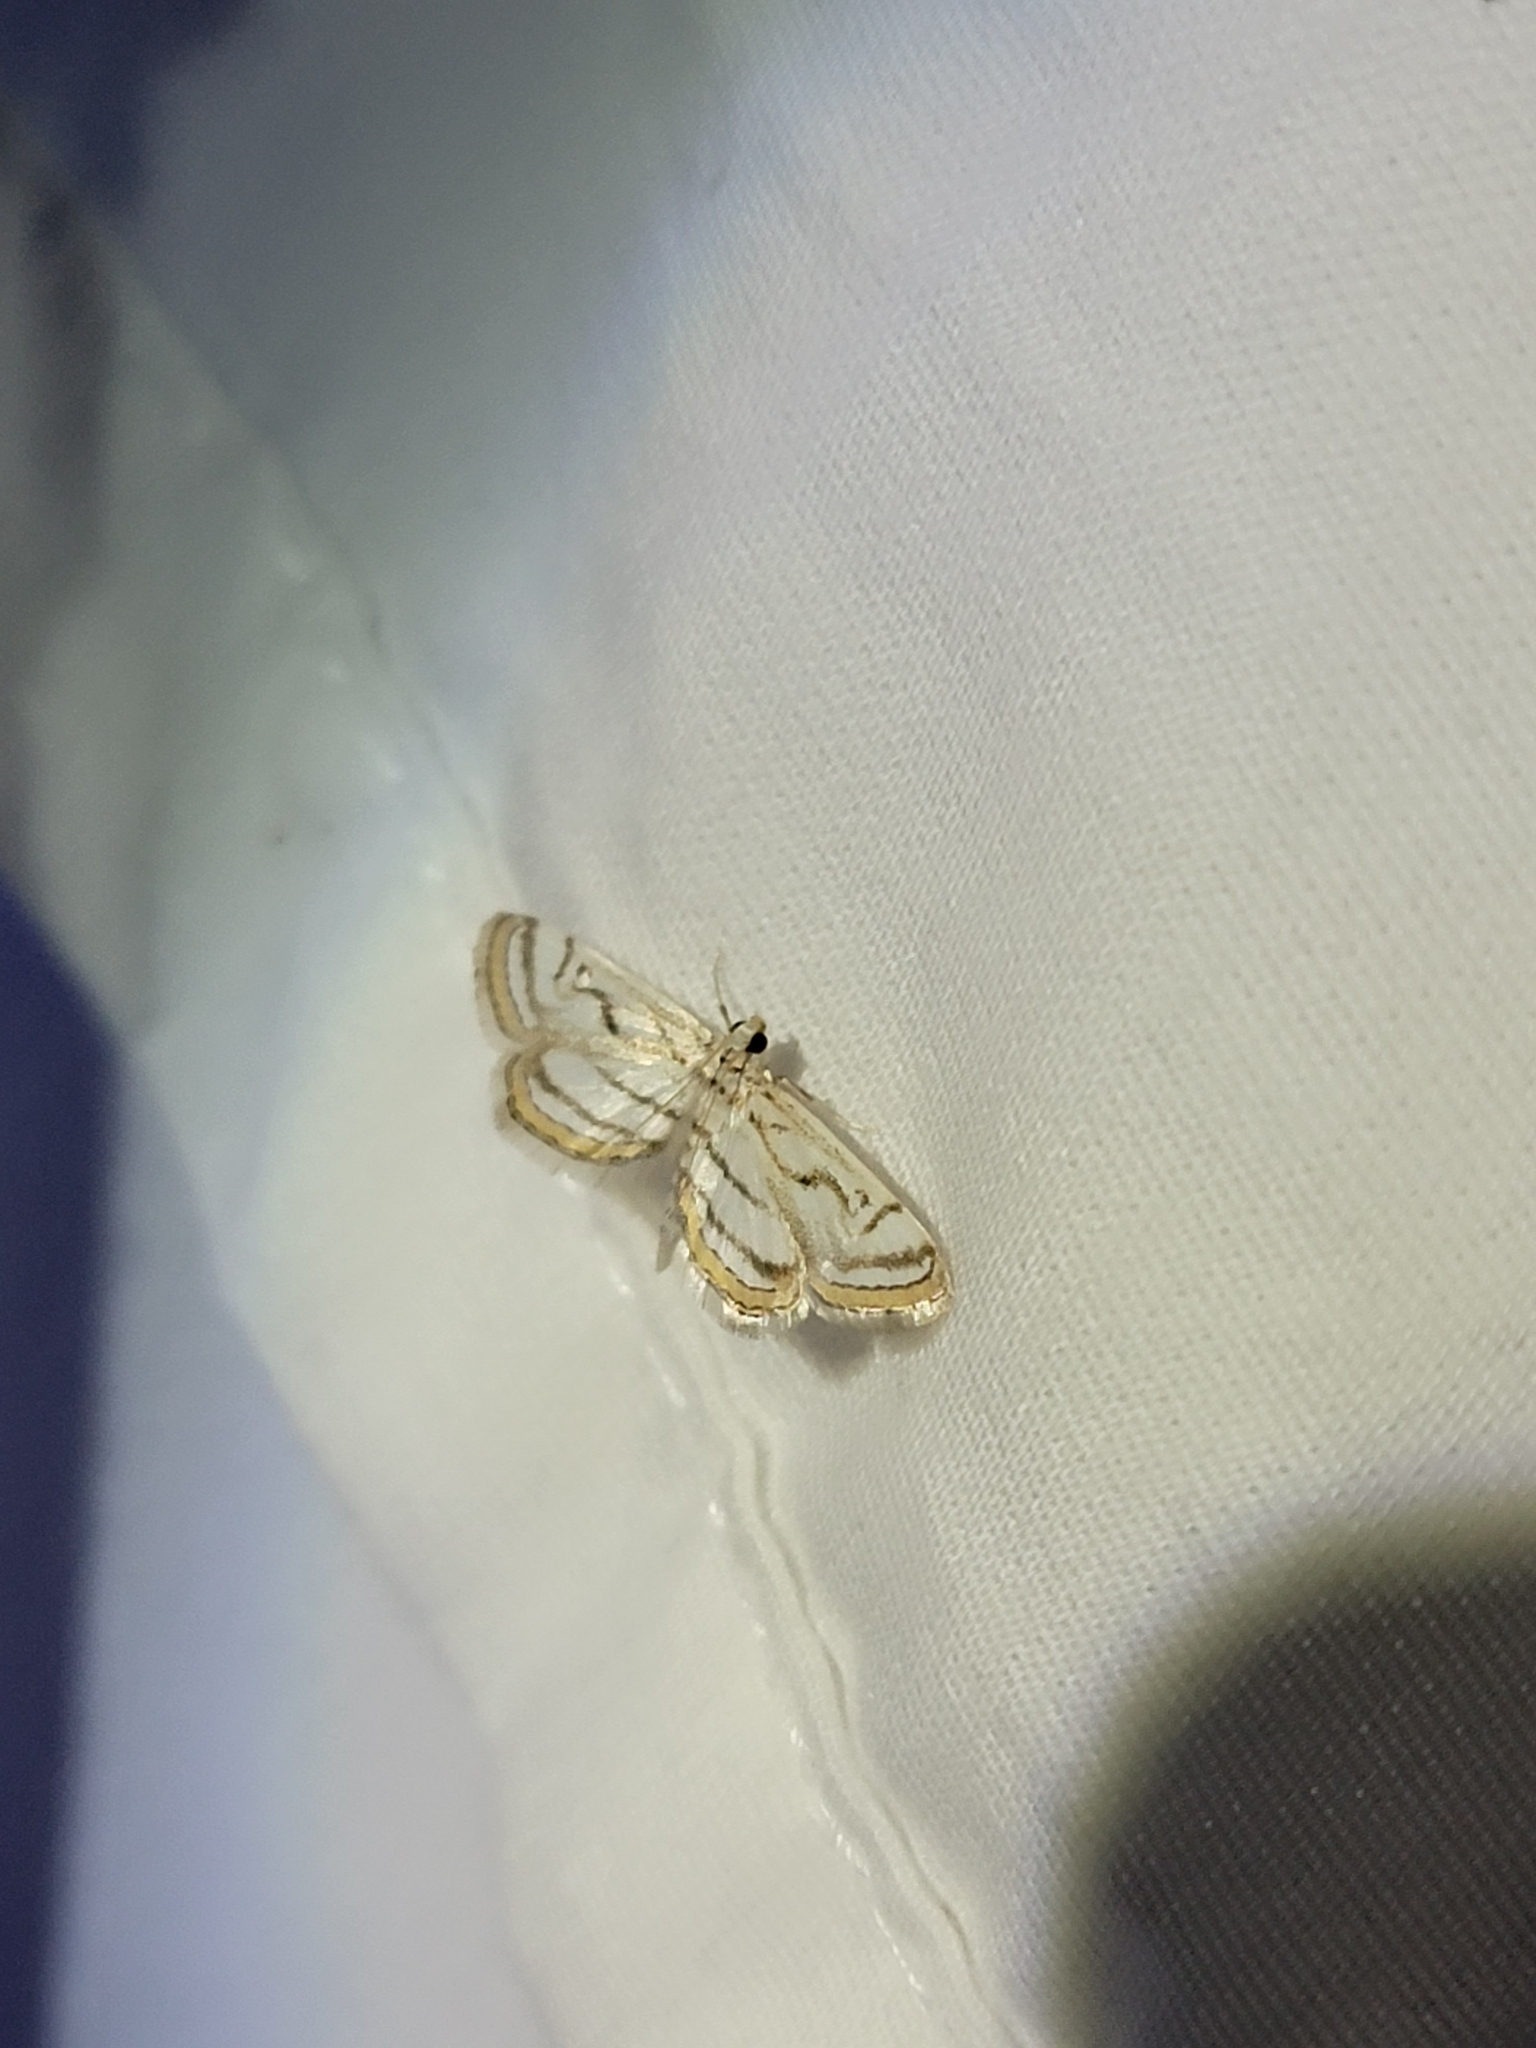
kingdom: Animalia
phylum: Arthropoda
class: Insecta
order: Lepidoptera
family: Crambidae
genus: Parapoynx
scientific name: Parapoynx badiusalis
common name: Chestnut-marked pondweed moth
